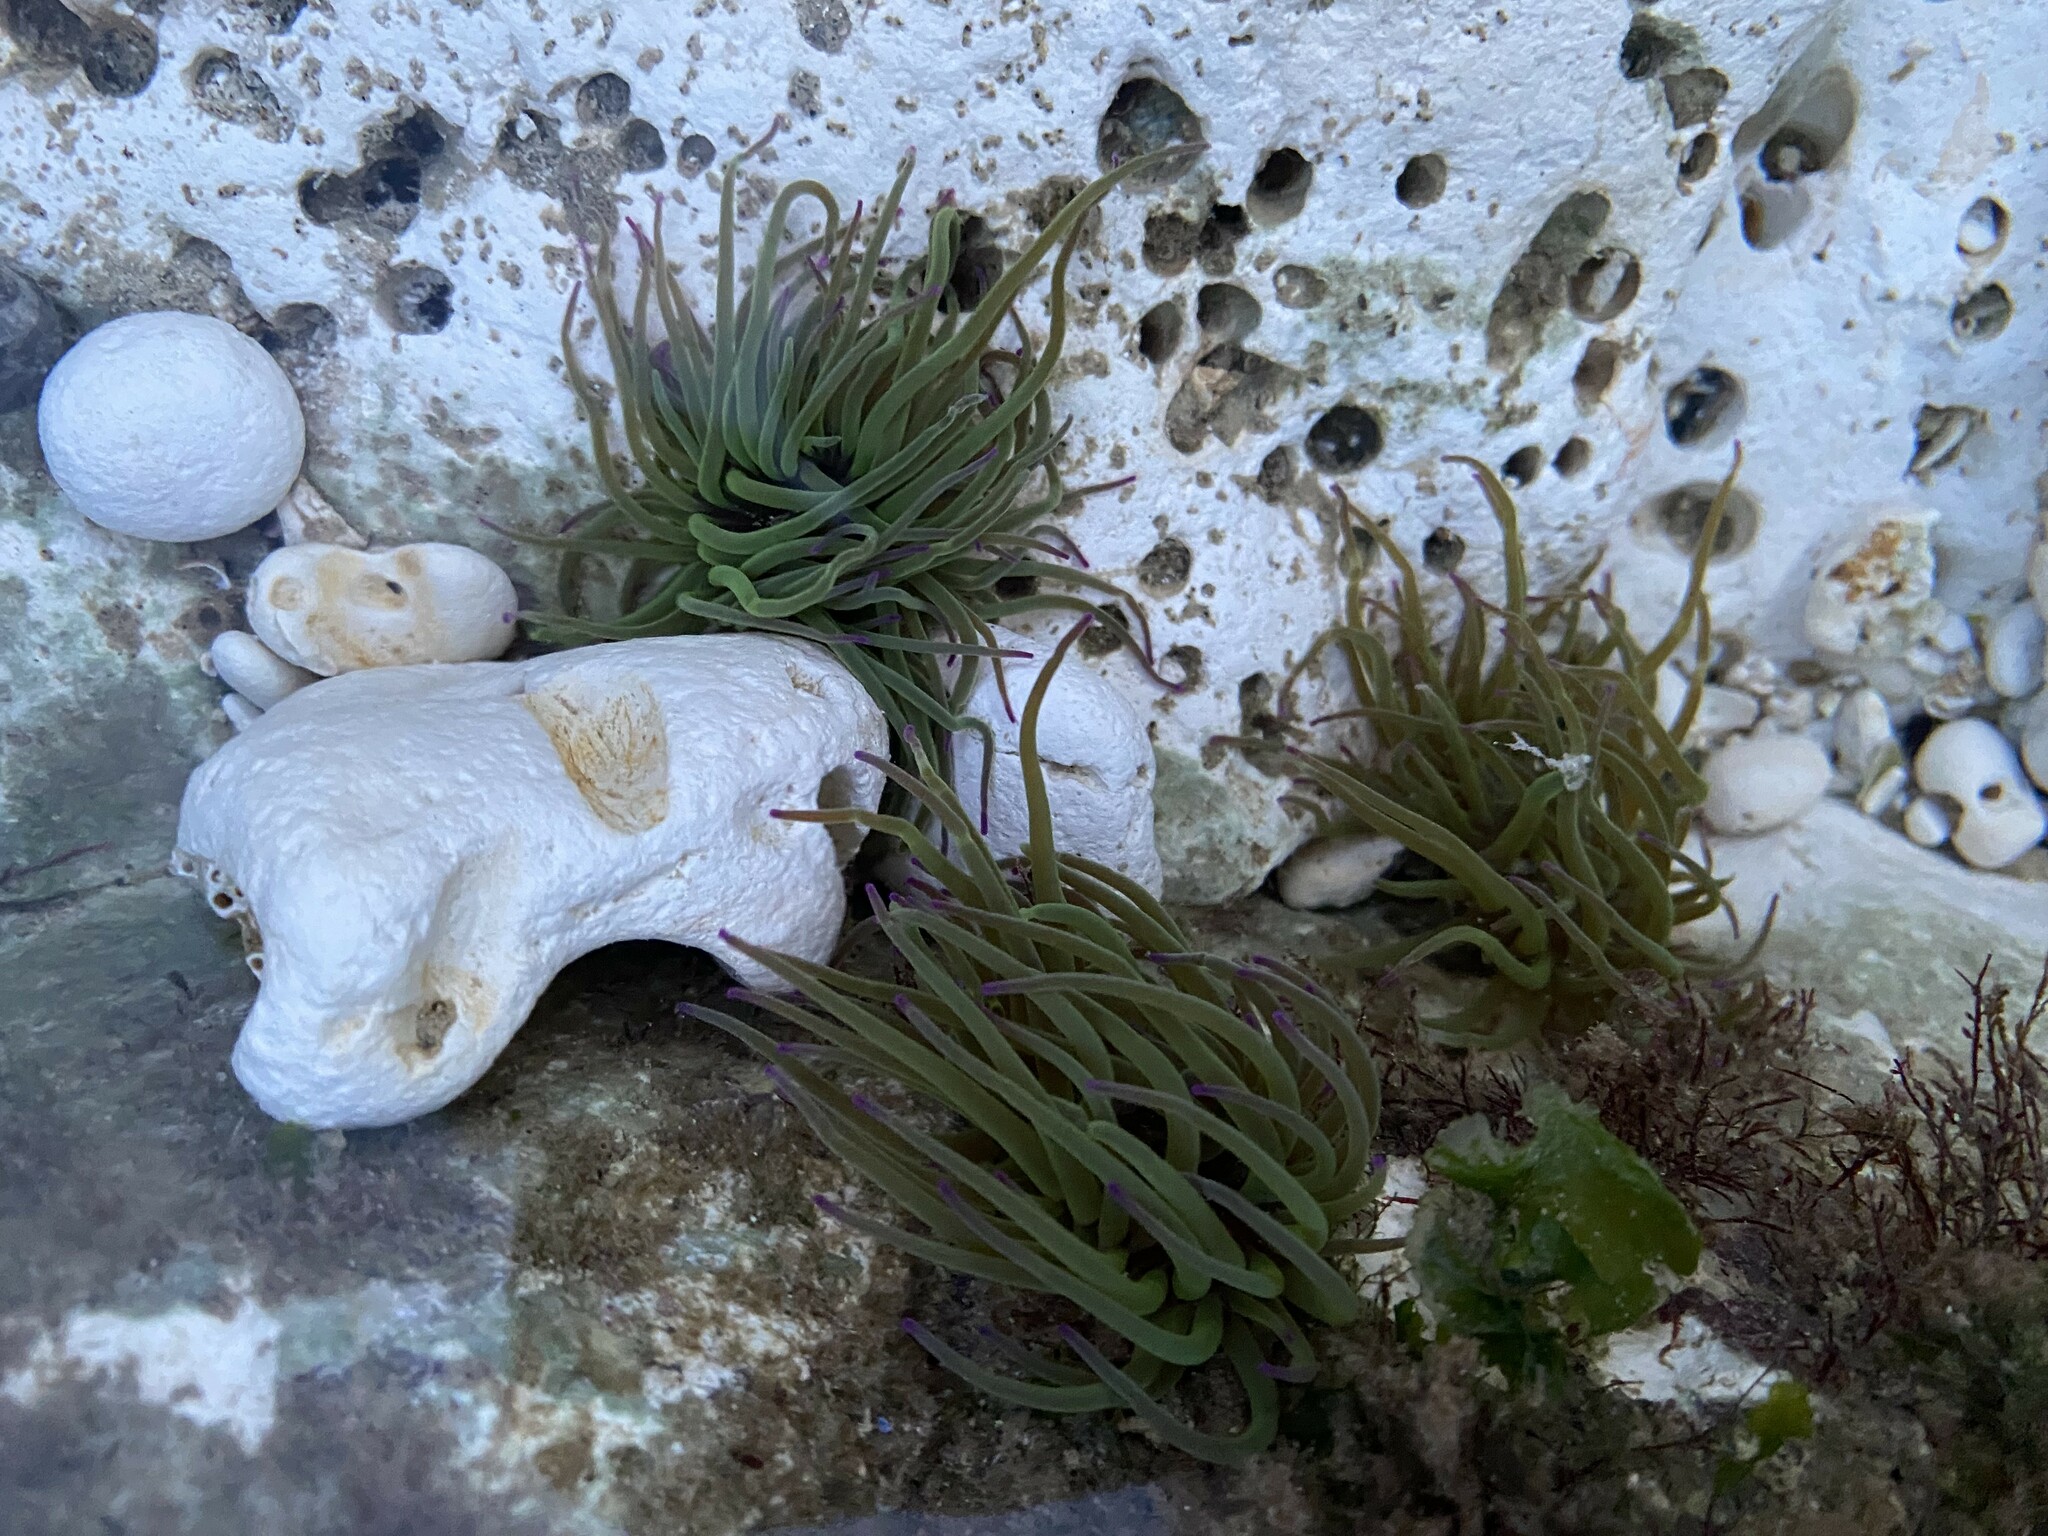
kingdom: Animalia
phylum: Cnidaria
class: Anthozoa
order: Actiniaria
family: Actiniidae
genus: Anemonia
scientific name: Anemonia viridis
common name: Snakelocks anemone
